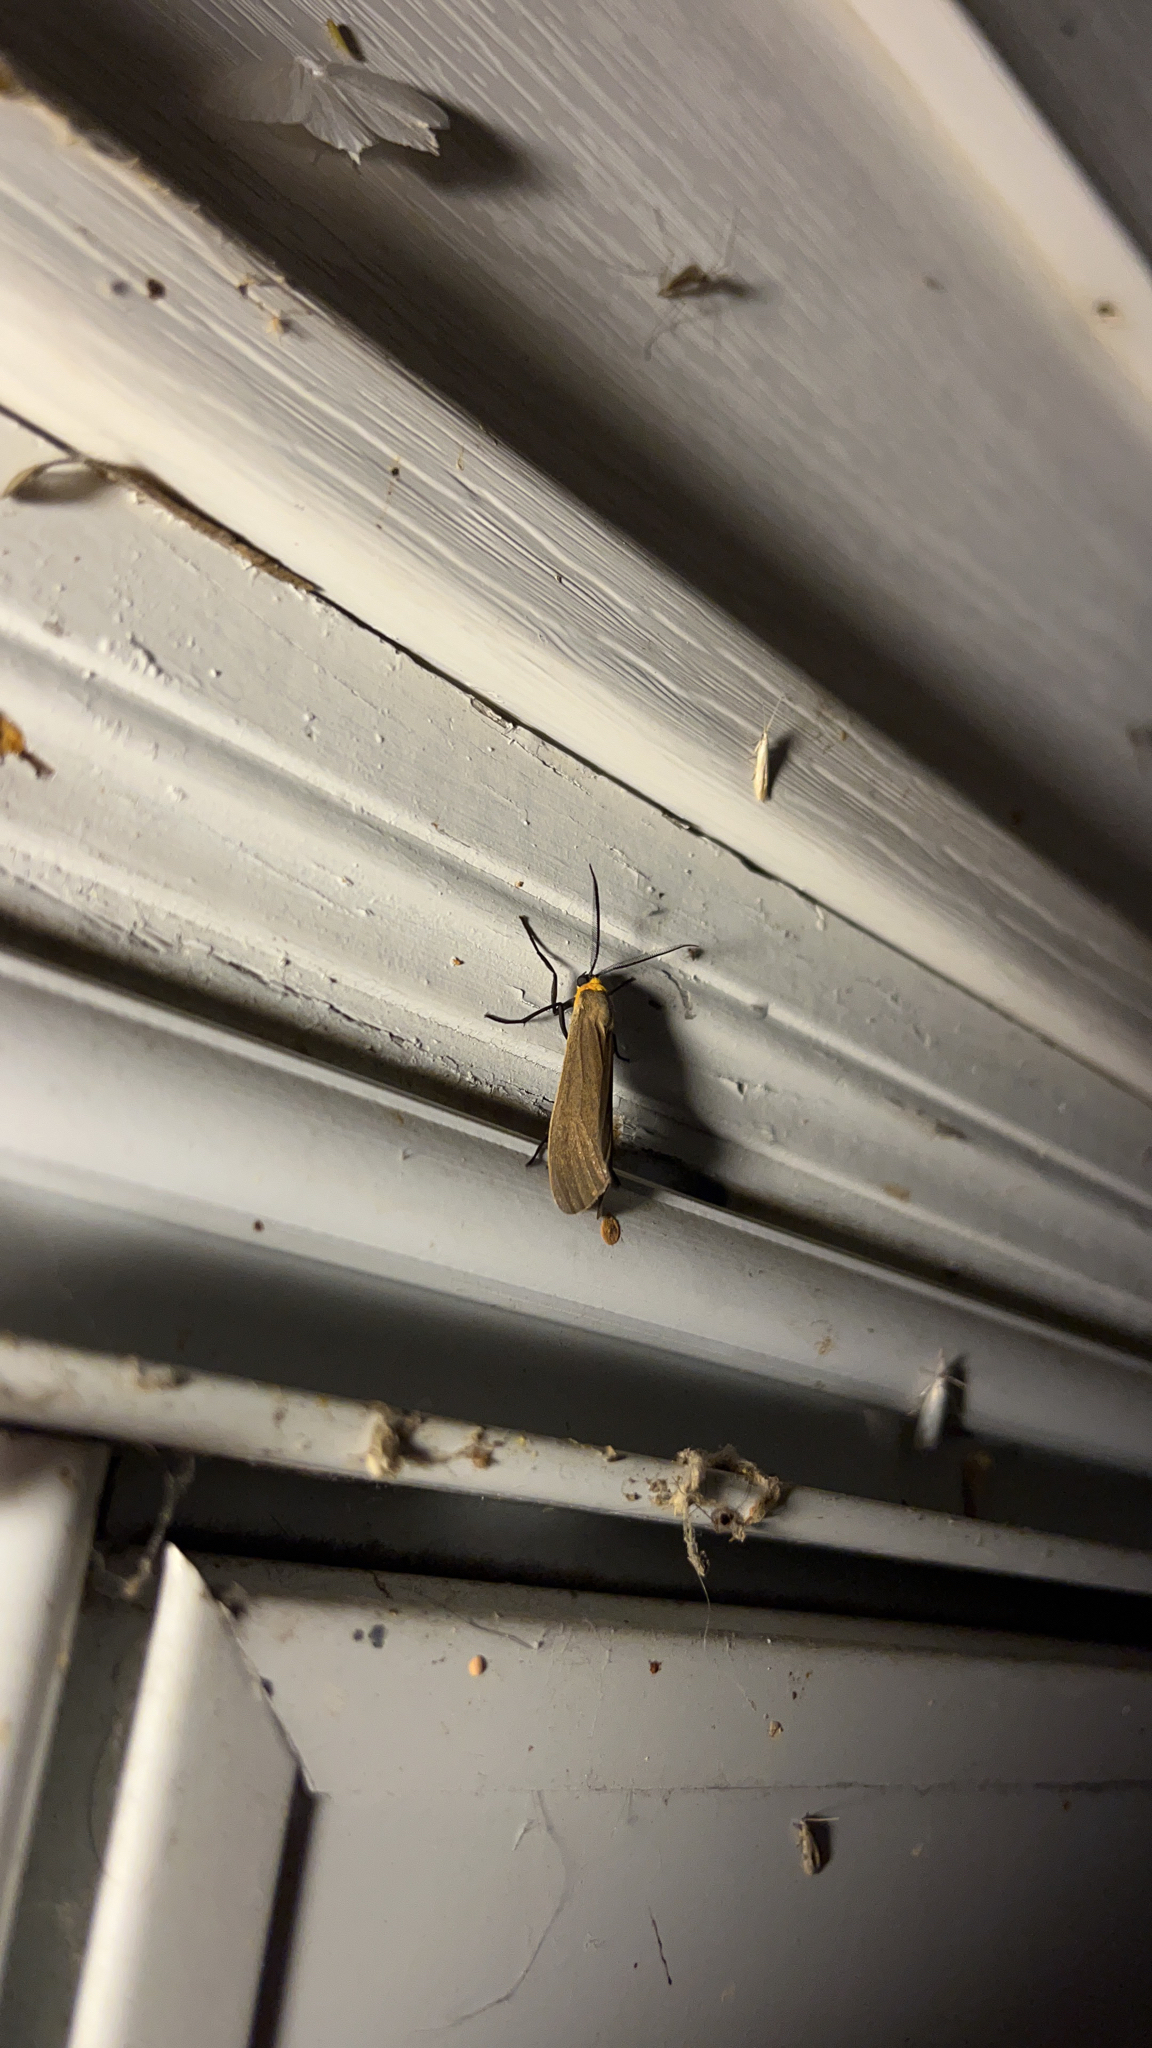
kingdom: Animalia
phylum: Arthropoda
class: Insecta
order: Lepidoptera
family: Erebidae
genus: Cisseps
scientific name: Cisseps fulvicollis
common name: Yellow-collared scape moth
